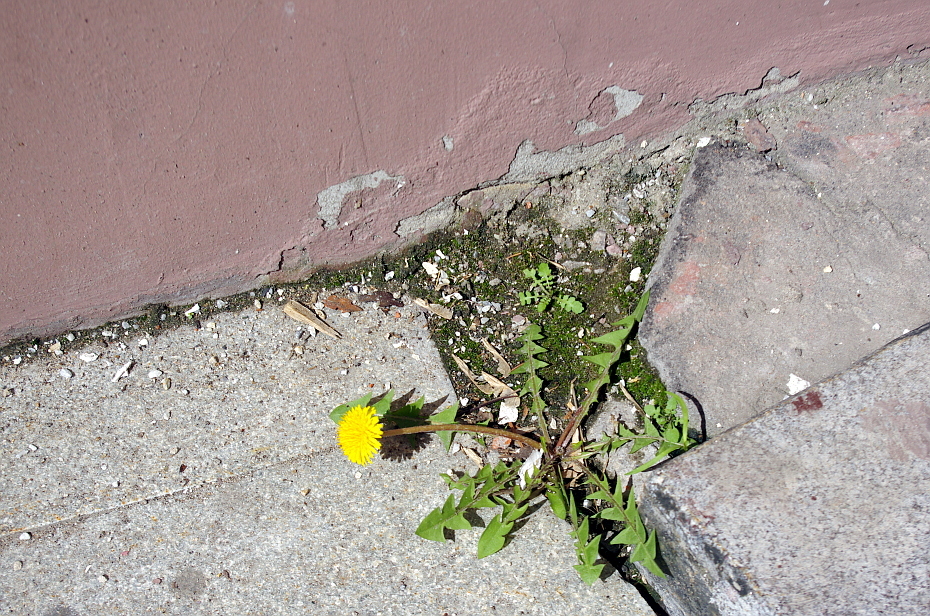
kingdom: Plantae
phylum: Tracheophyta
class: Magnoliopsida
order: Asterales
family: Asteraceae
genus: Taraxacum
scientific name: Taraxacum officinale
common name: Common dandelion
